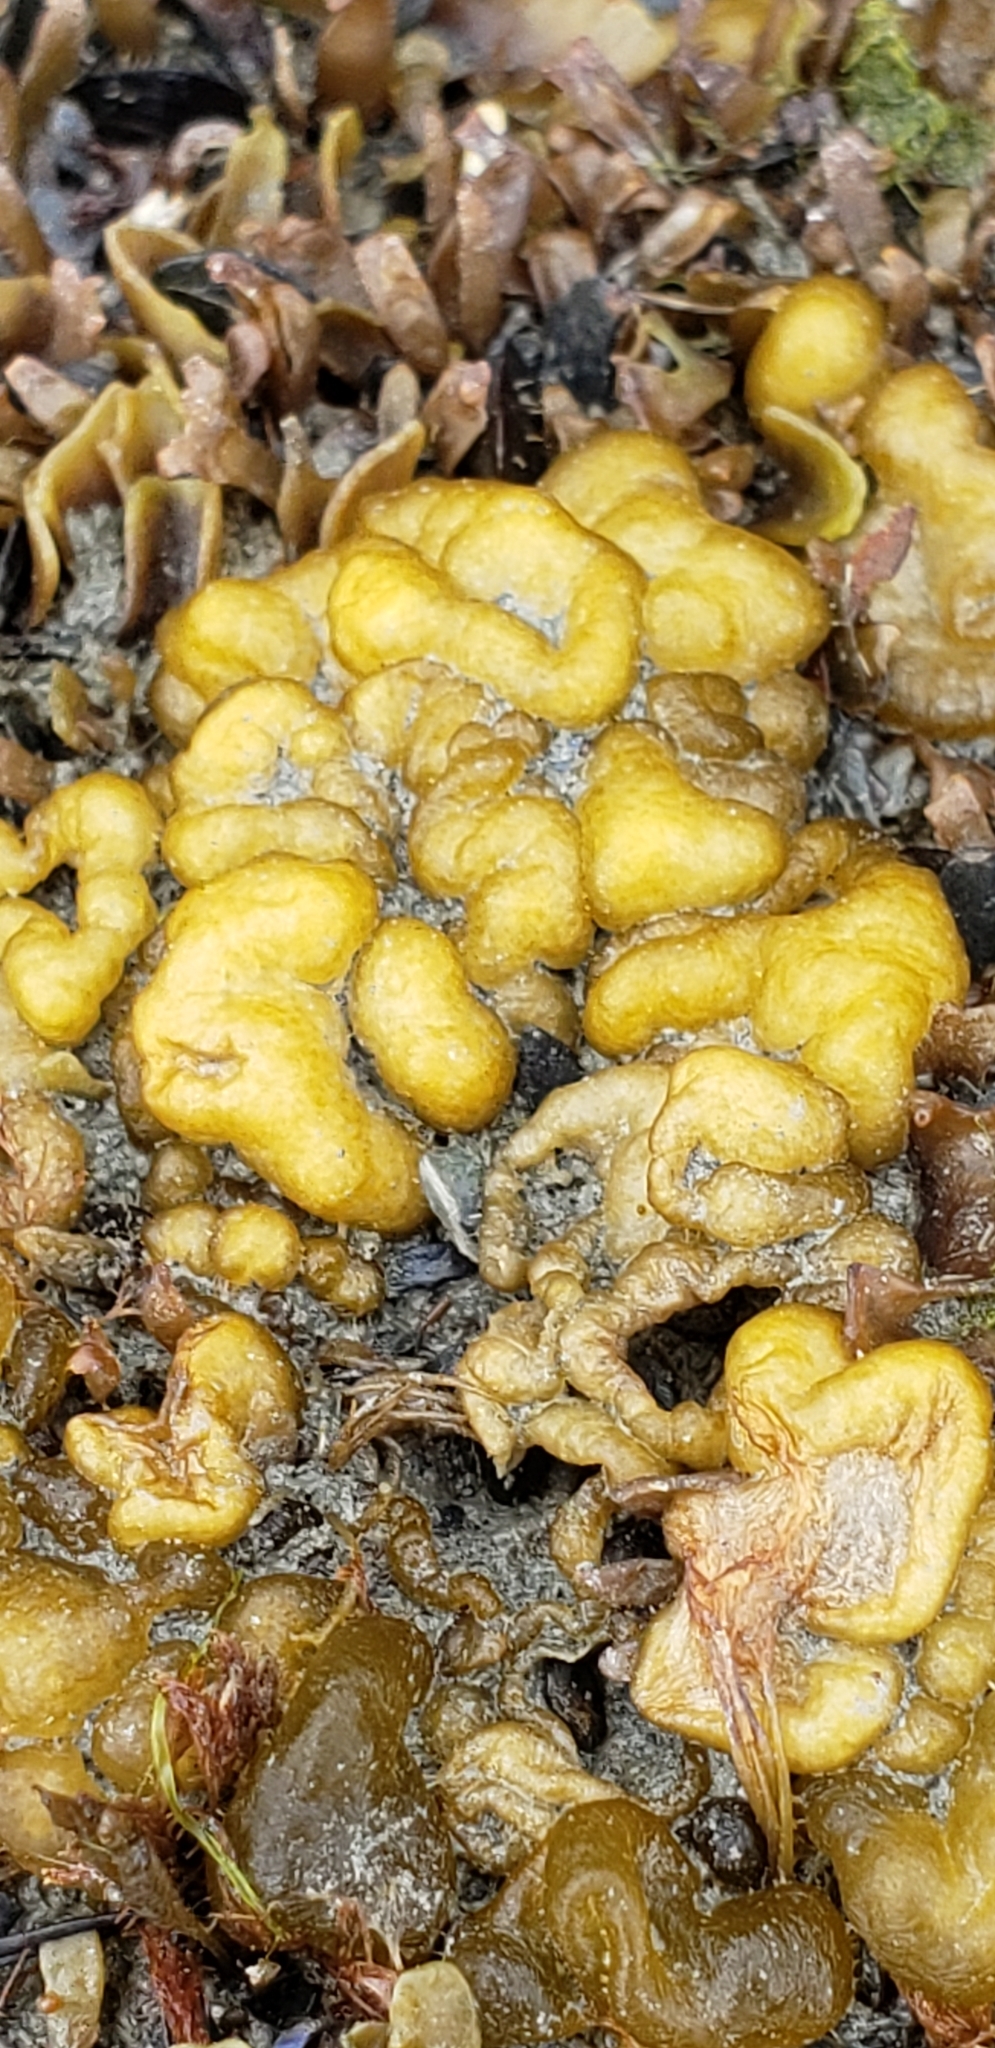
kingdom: Chromista
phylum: Ochrophyta
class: Phaeophyceae
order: Ectocarpales
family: Chordariaceae
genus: Leathesia
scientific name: Leathesia marina
